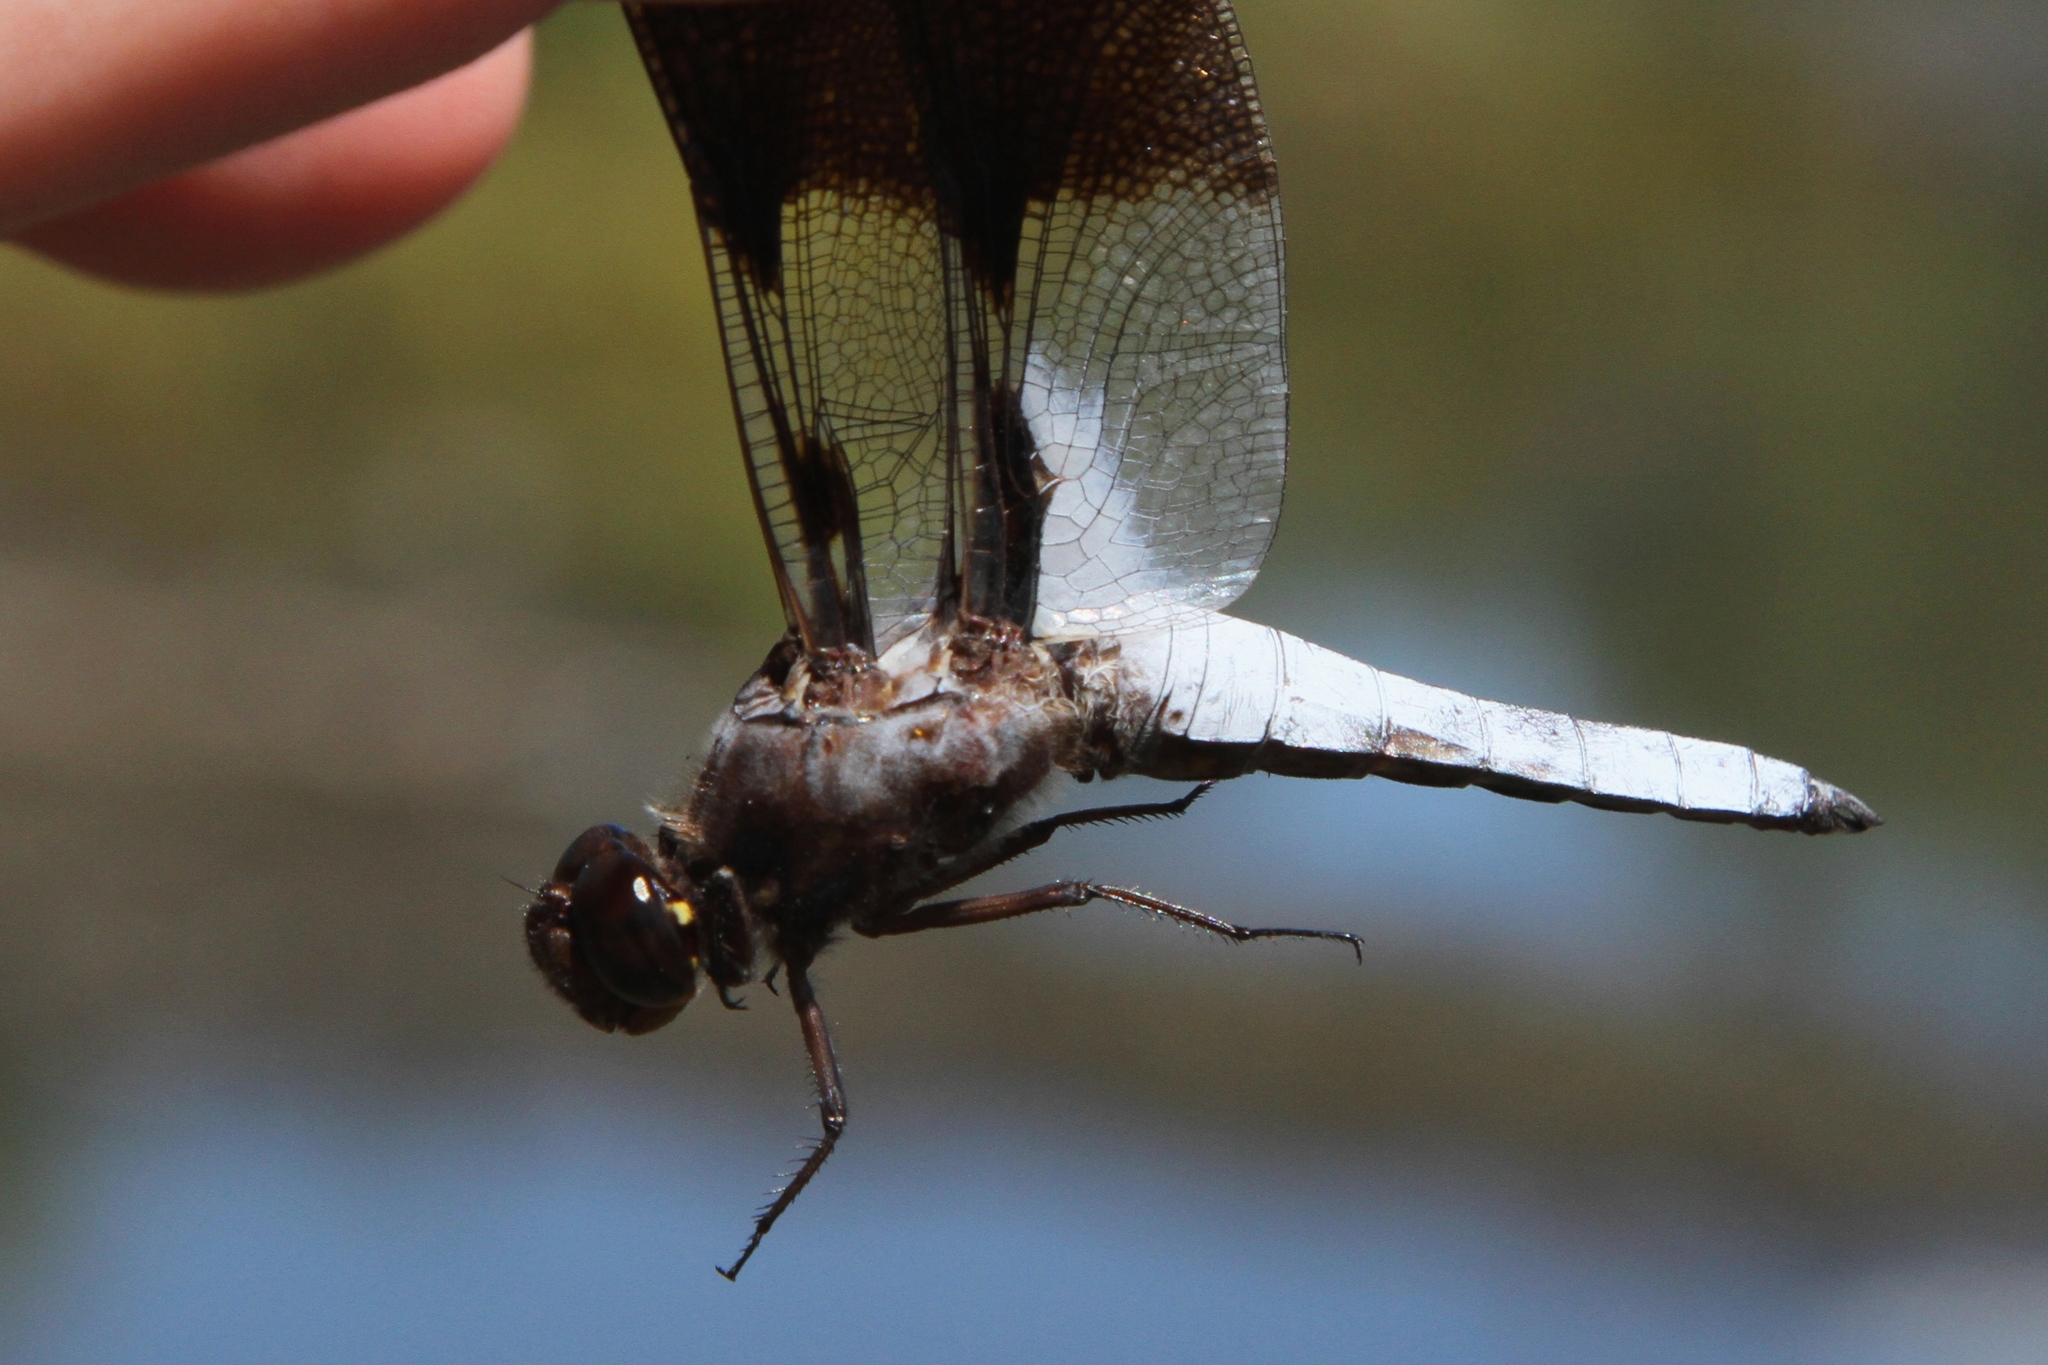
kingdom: Animalia
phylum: Arthropoda
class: Insecta
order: Odonata
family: Libellulidae
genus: Plathemis
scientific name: Plathemis lydia
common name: Common whitetail
